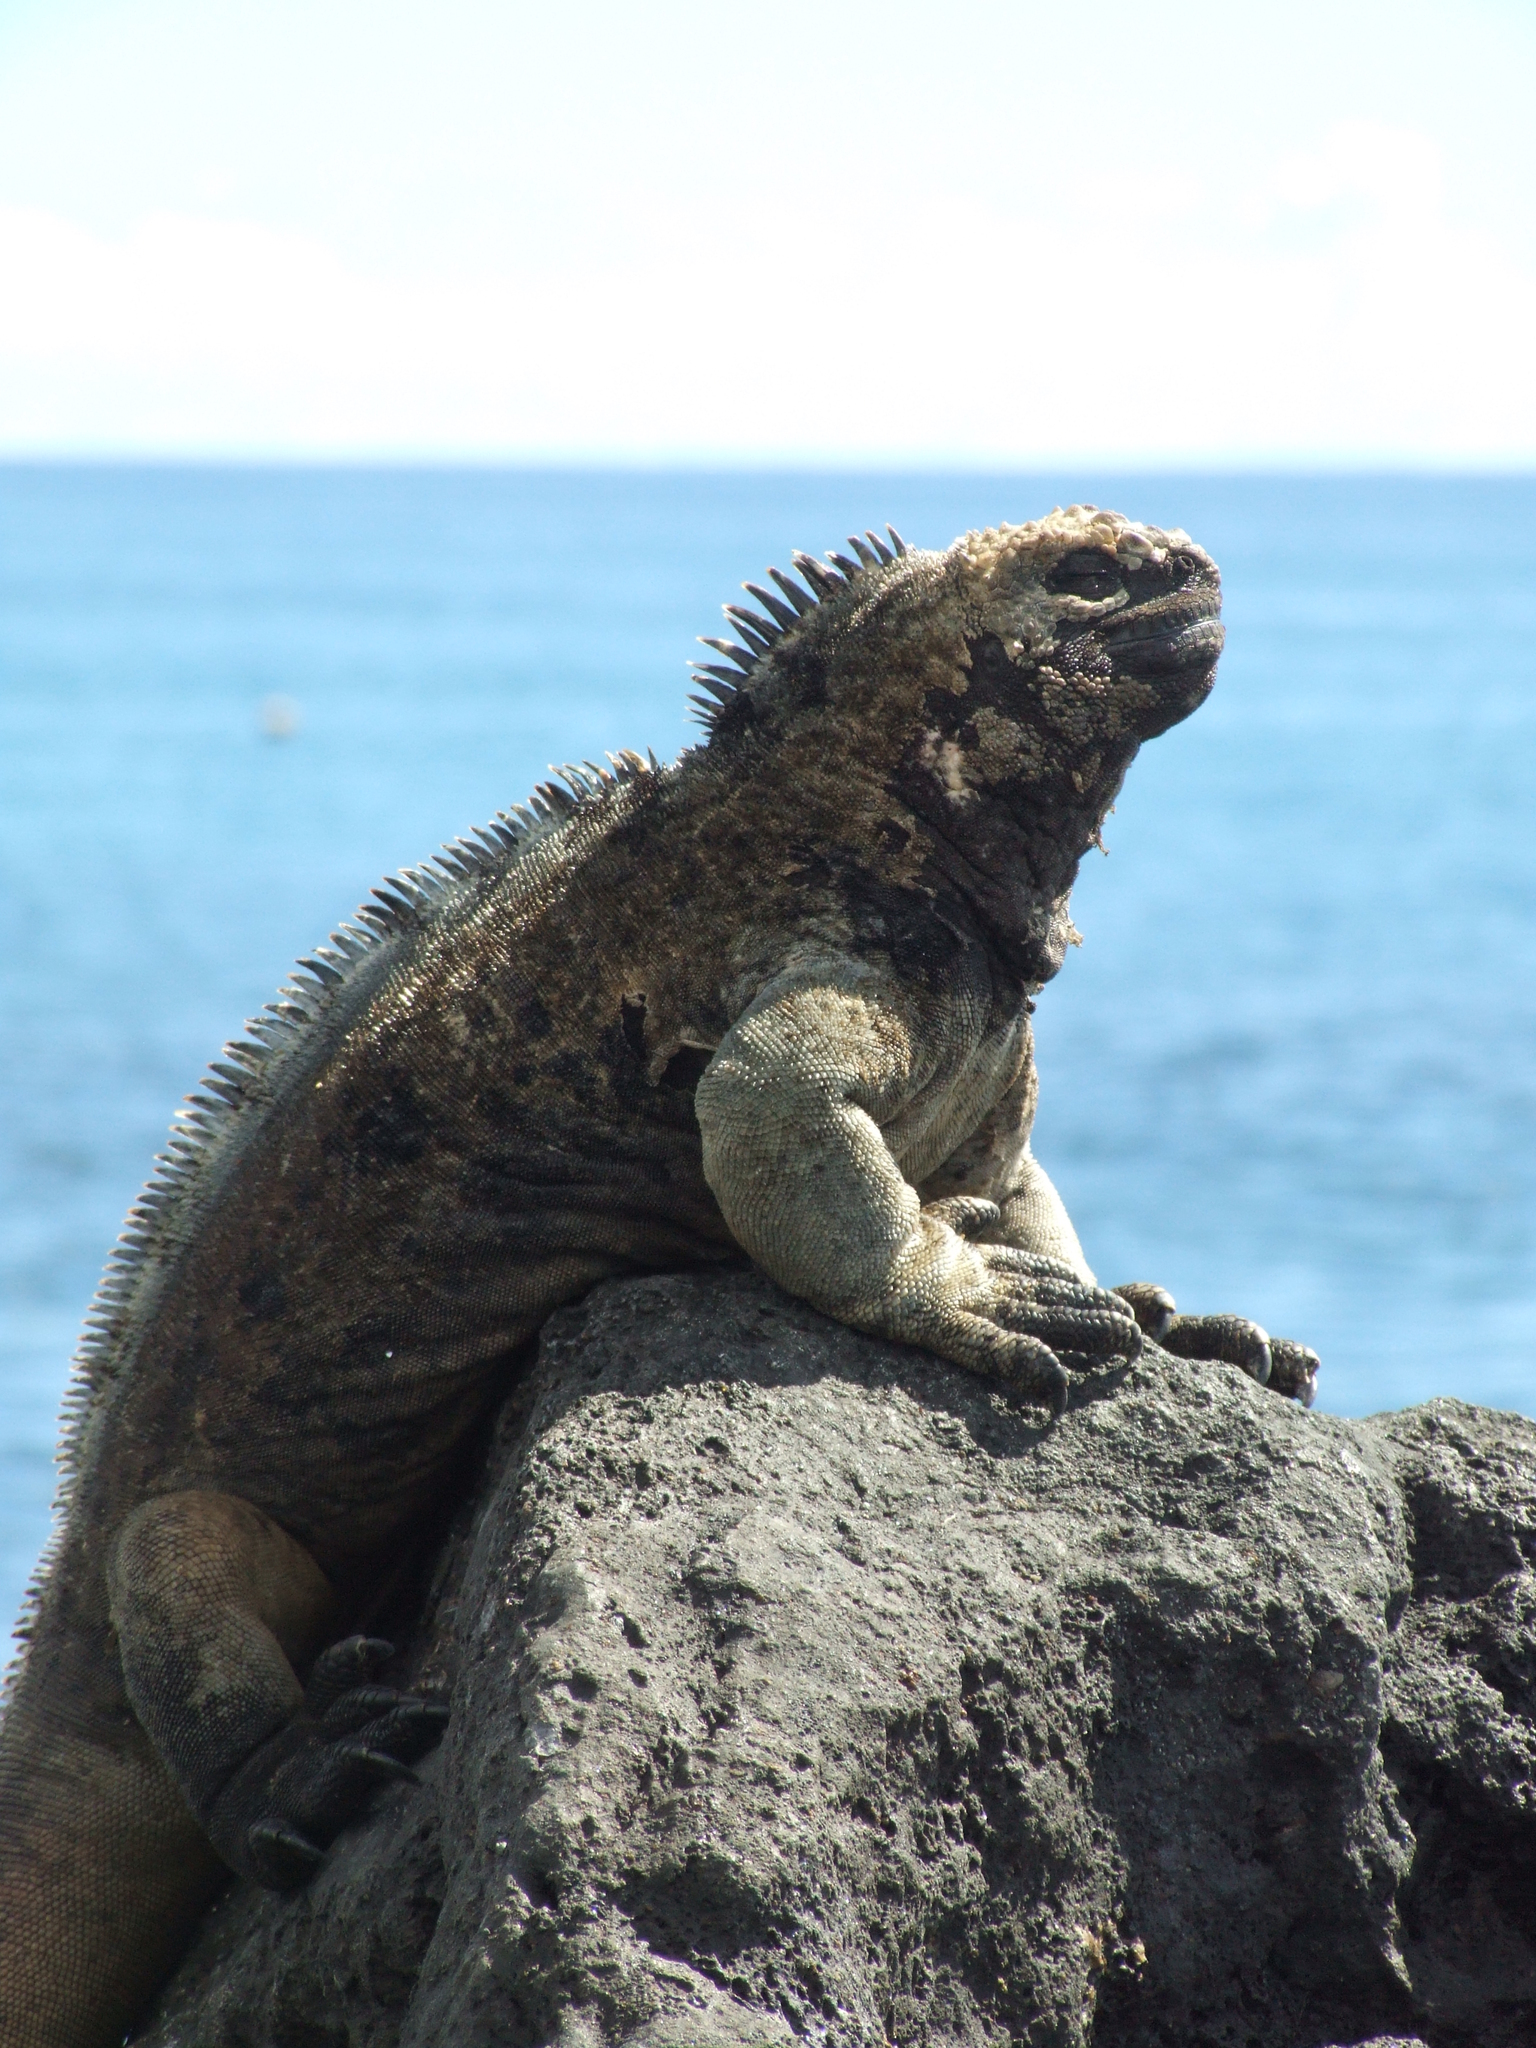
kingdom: Animalia
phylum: Chordata
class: Squamata
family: Iguanidae
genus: Amblyrhynchus
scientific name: Amblyrhynchus cristatus
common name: Marine iguana
